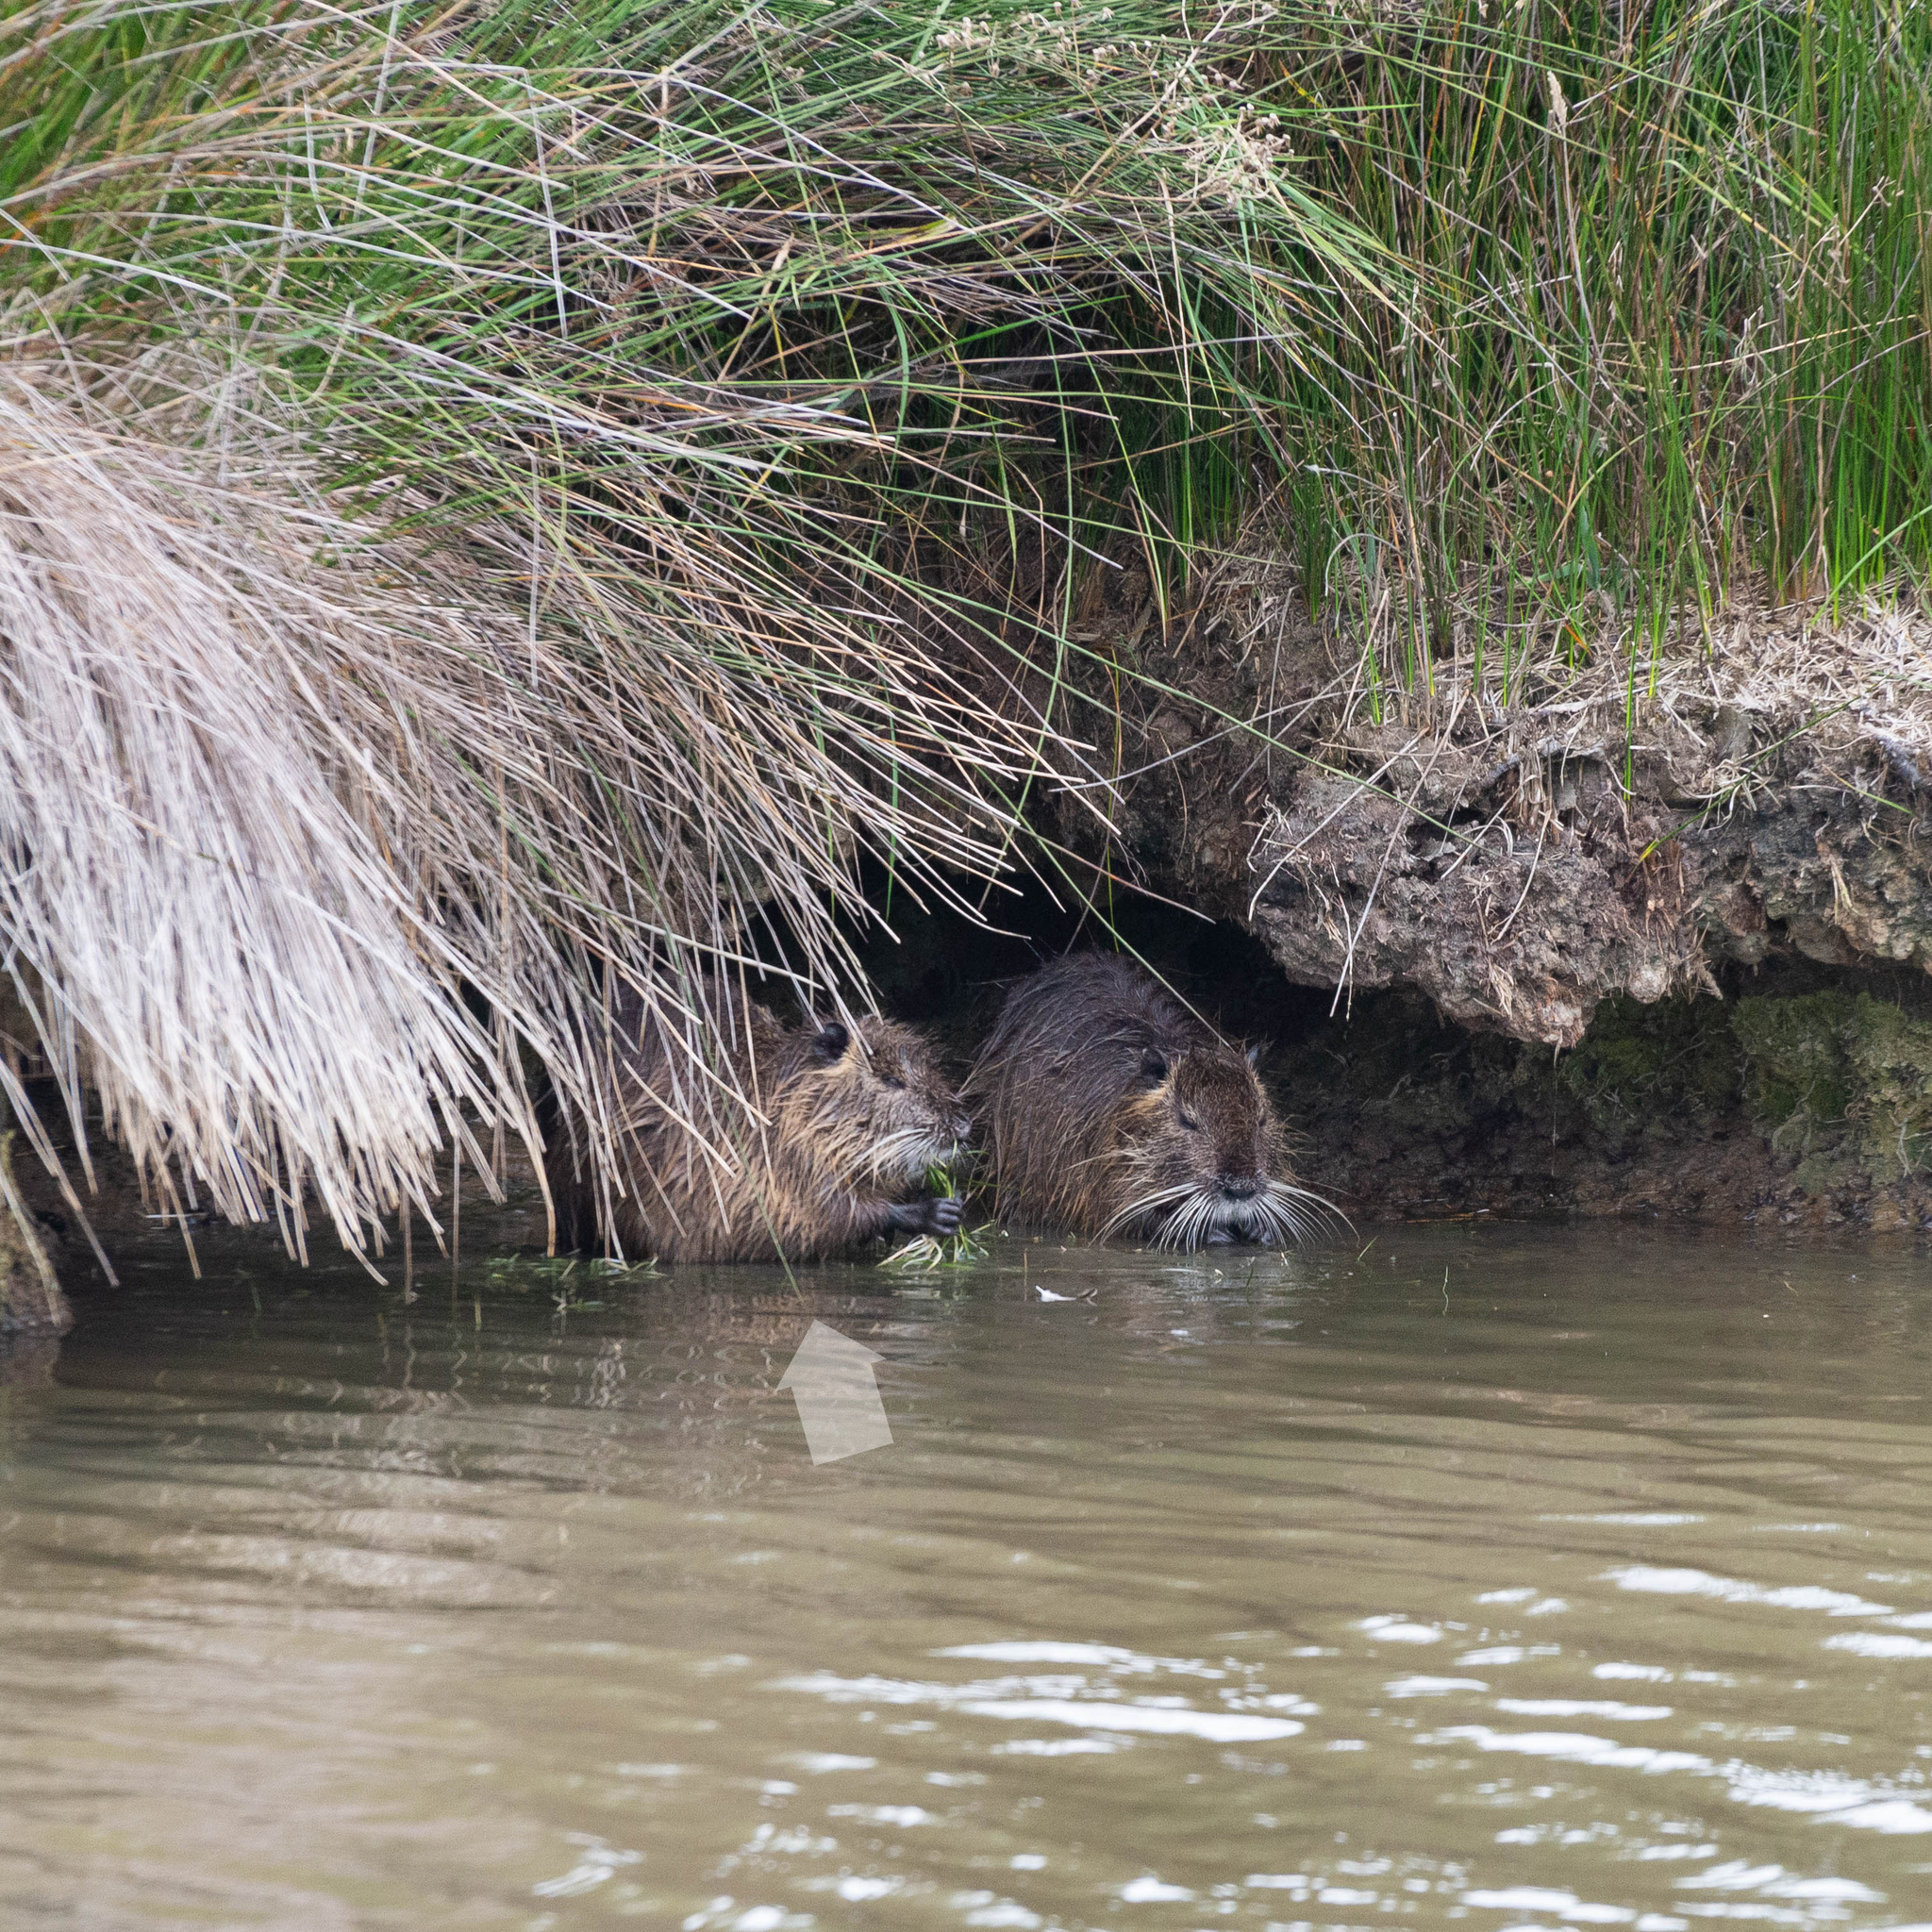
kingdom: Animalia
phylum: Chordata
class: Mammalia
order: Rodentia
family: Myocastoridae
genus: Myocastor
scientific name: Myocastor coypus
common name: Coypu
